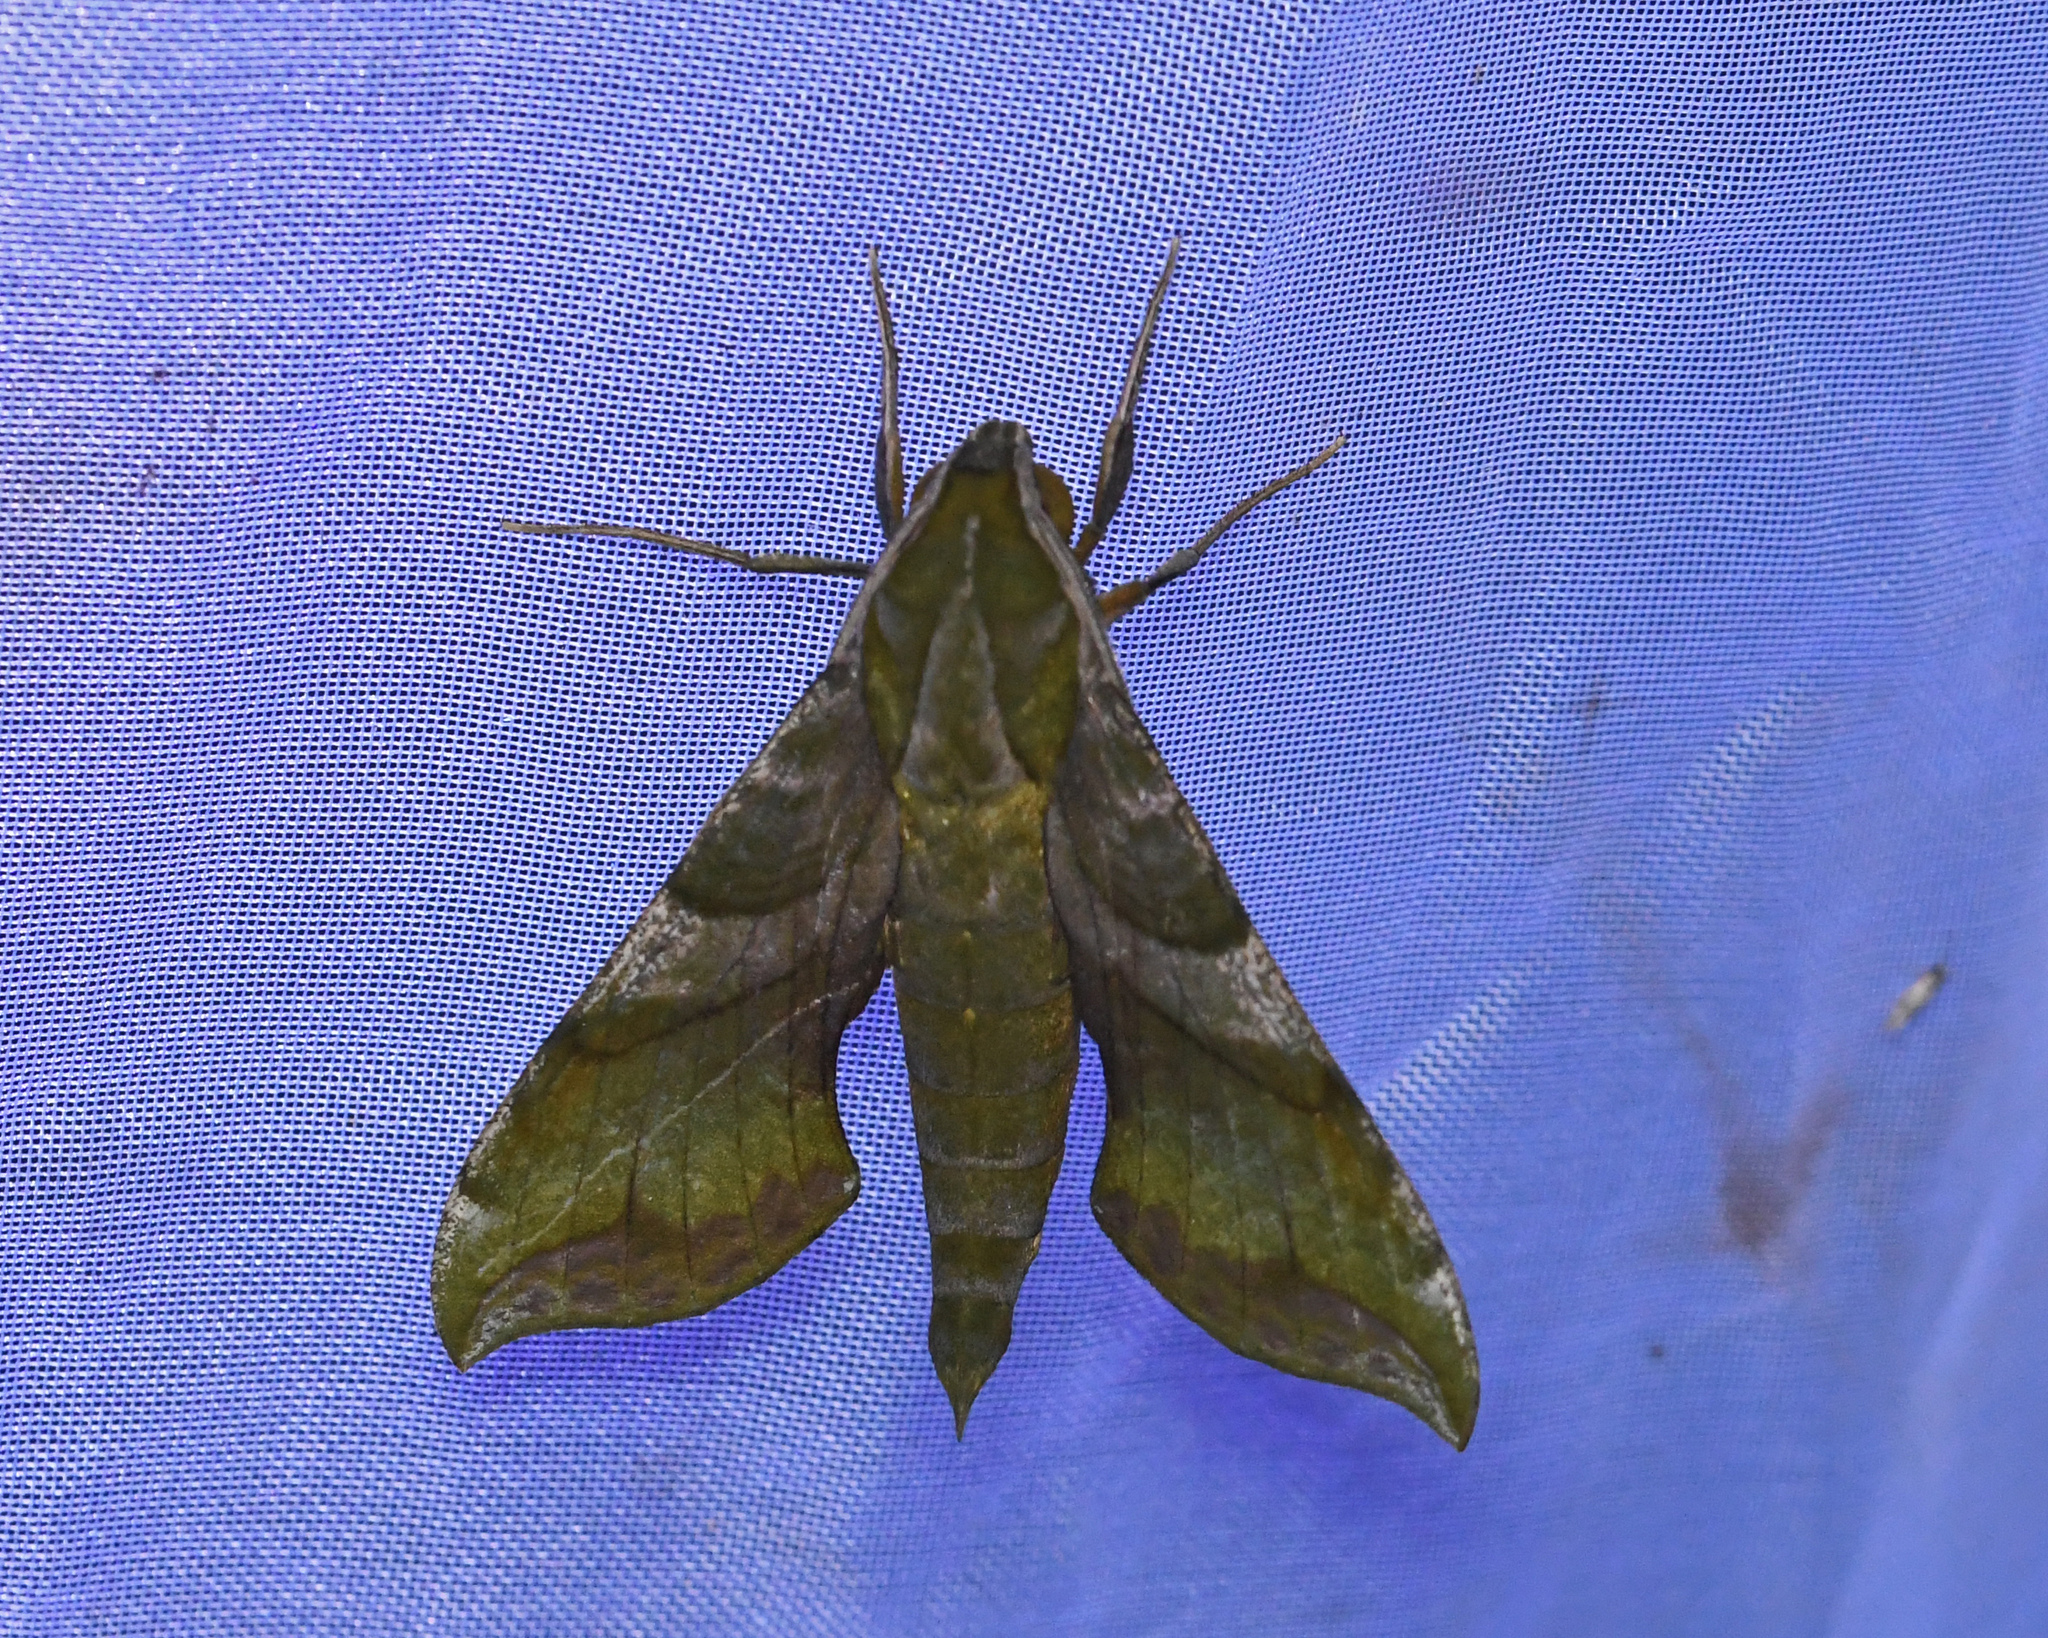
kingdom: Animalia
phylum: Arthropoda
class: Insecta
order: Lepidoptera
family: Sphingidae
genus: Xylophanes
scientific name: Xylophanes pluto
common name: Pluto sphinx
